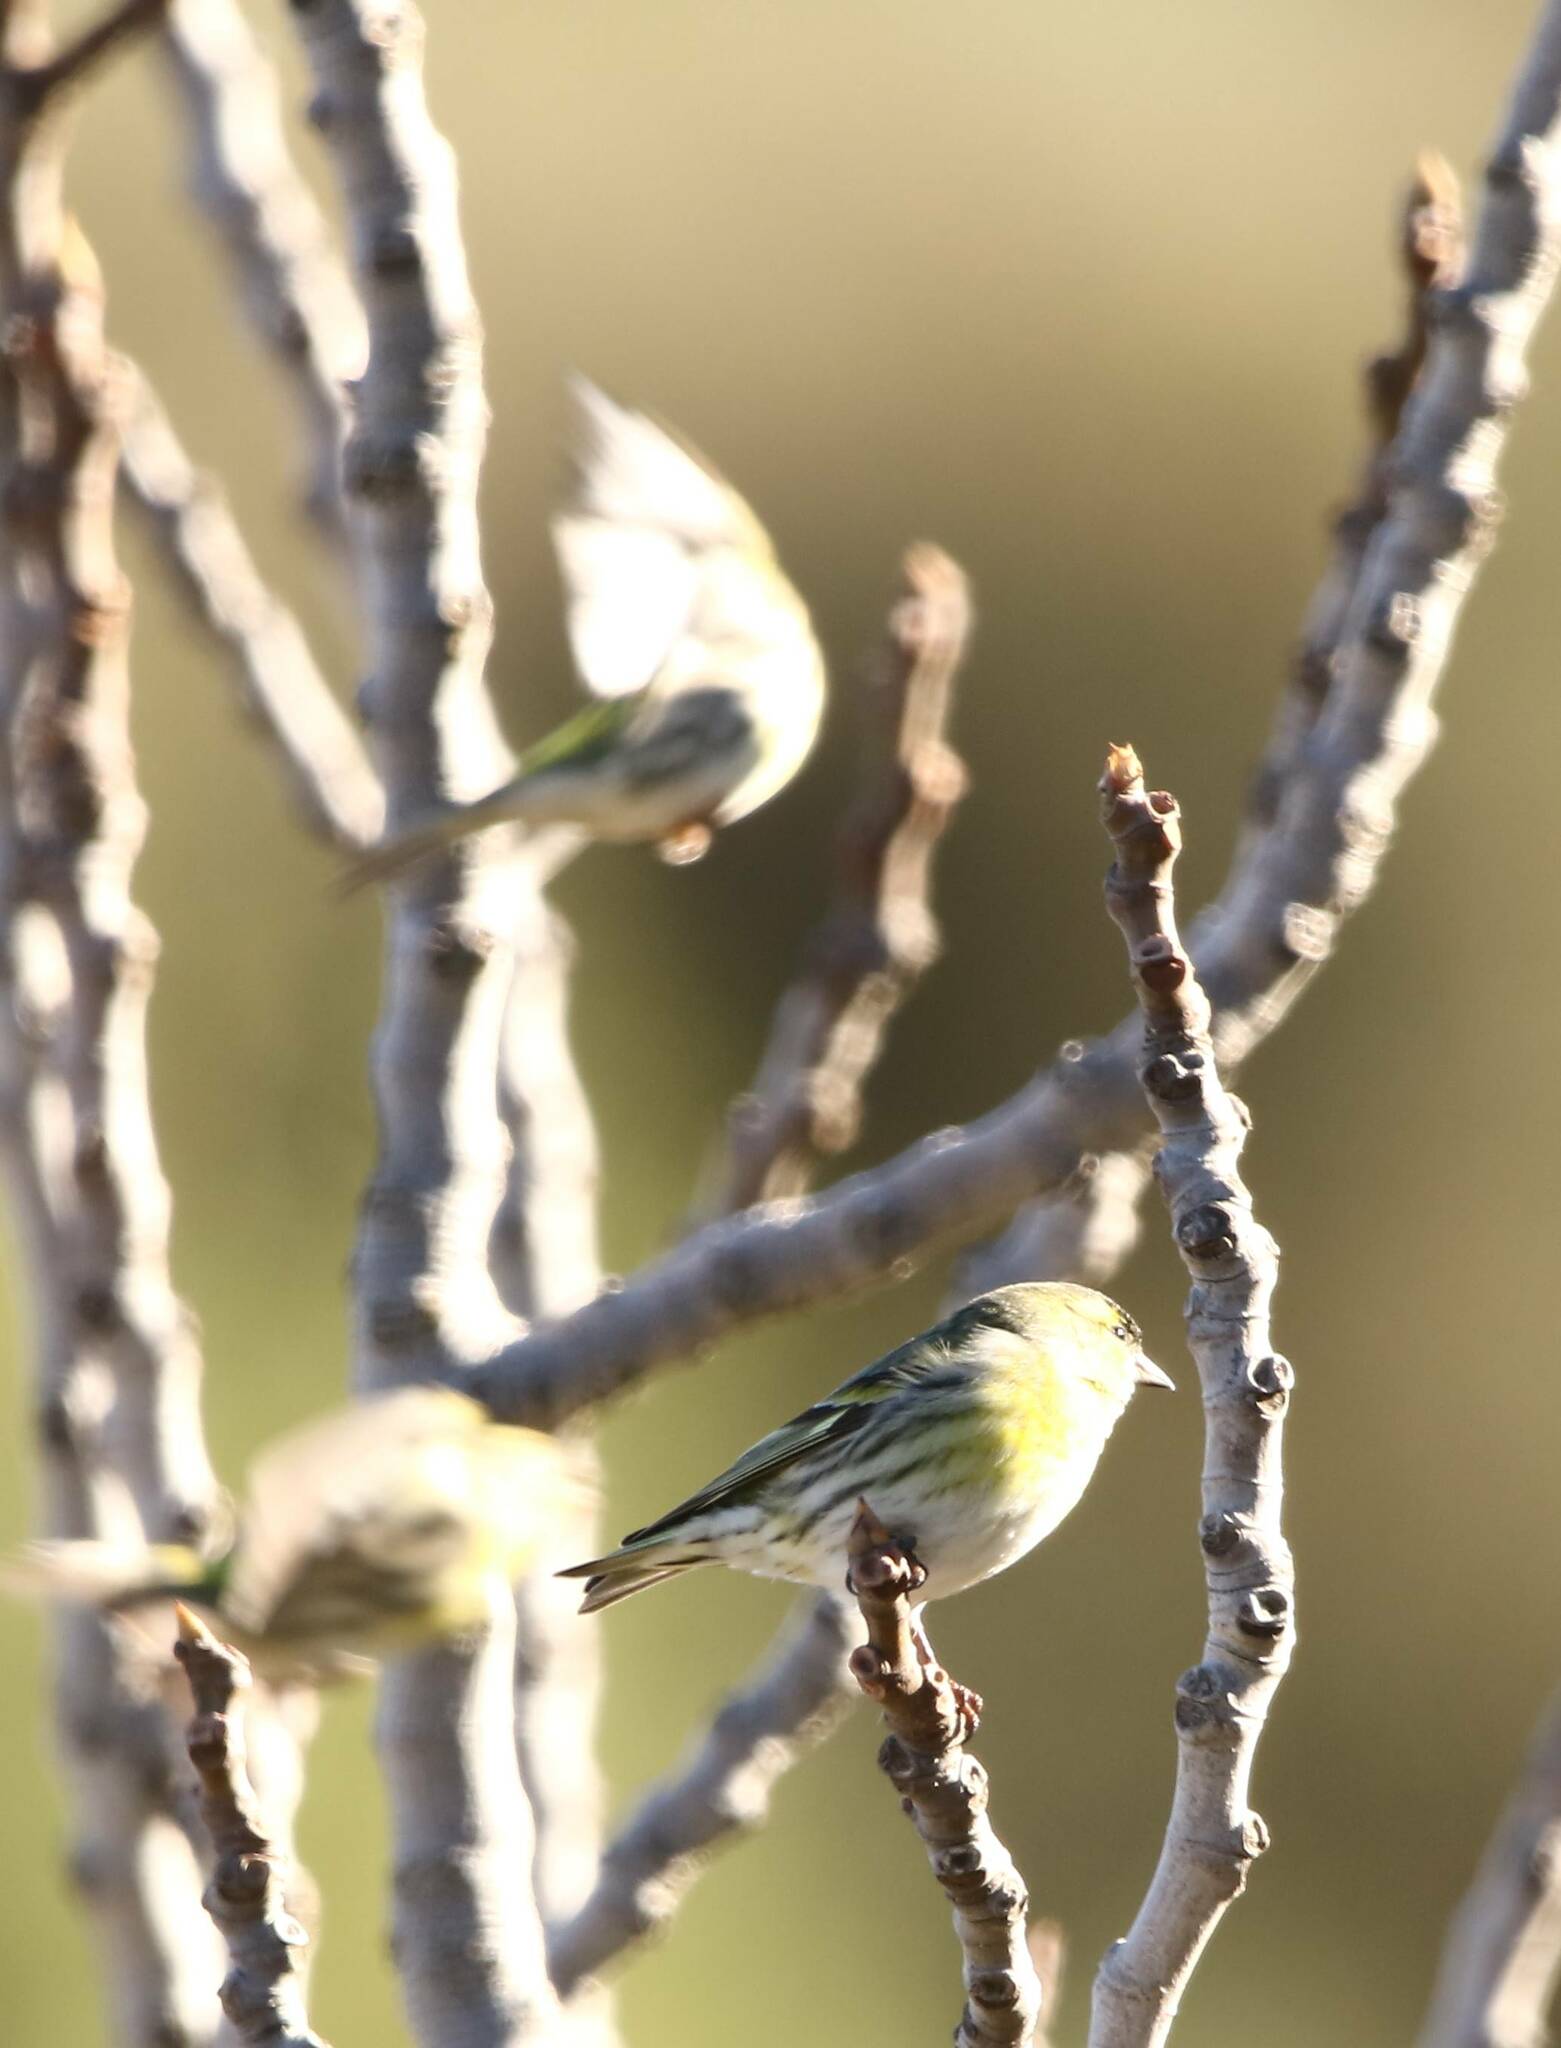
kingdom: Animalia
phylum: Chordata
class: Aves
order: Passeriformes
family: Fringillidae
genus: Spinus
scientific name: Spinus spinus
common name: Eurasian siskin
